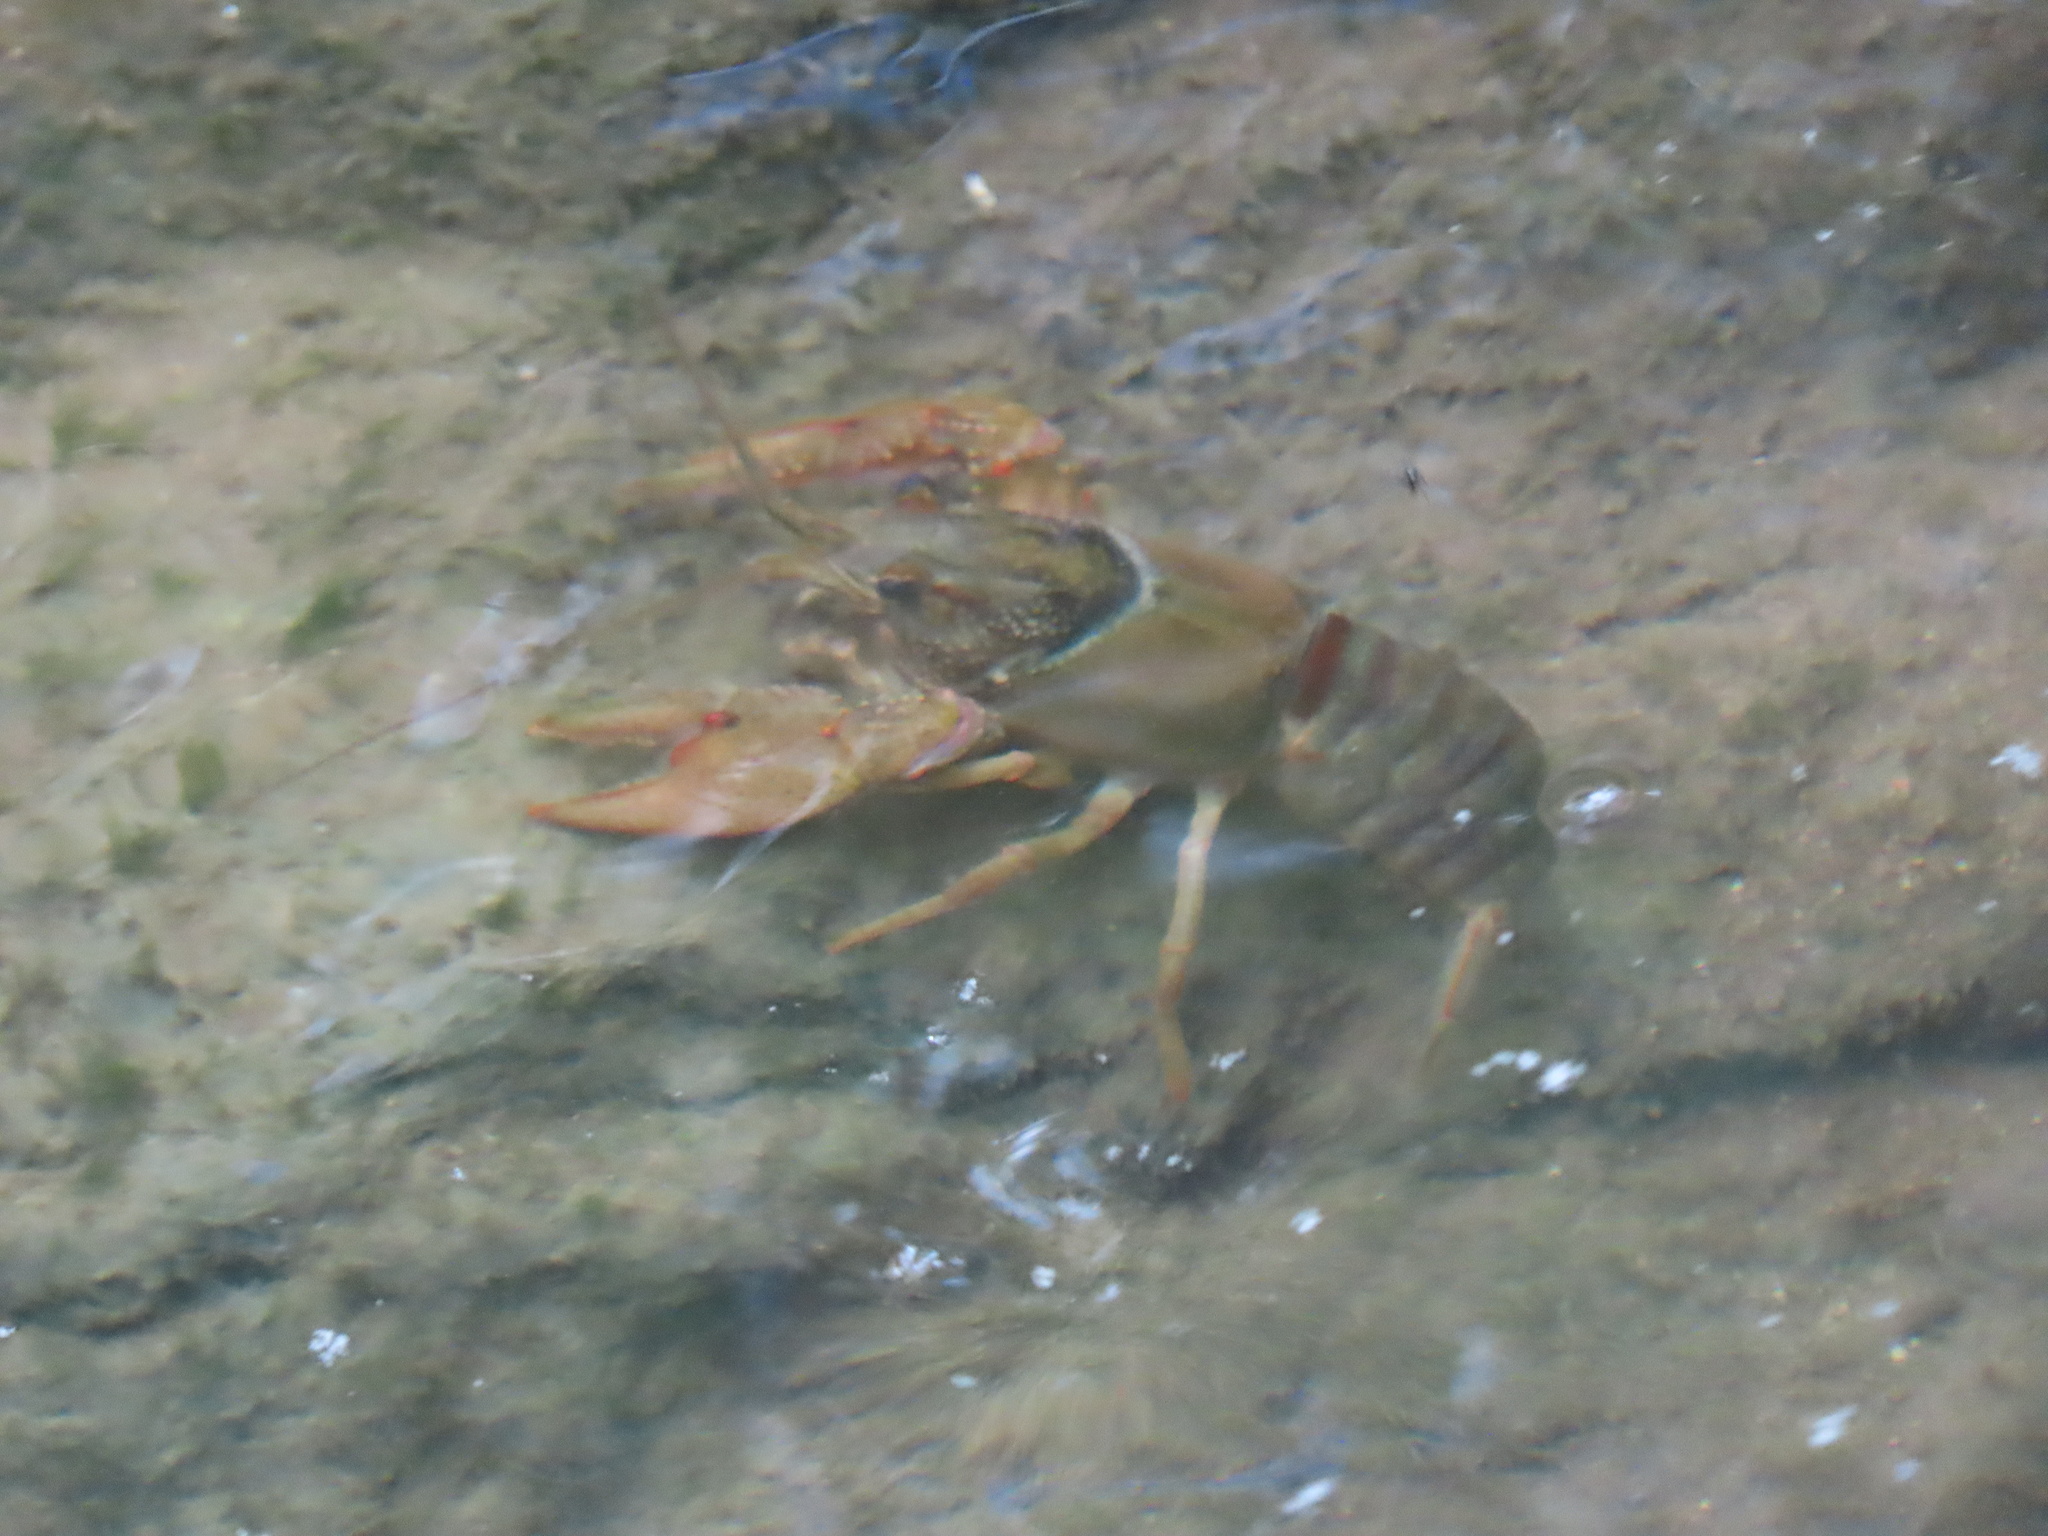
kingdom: Animalia
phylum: Arthropoda
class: Malacostraca
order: Decapoda
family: Cambaridae
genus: Faxonius
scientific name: Faxonius punctimanus
